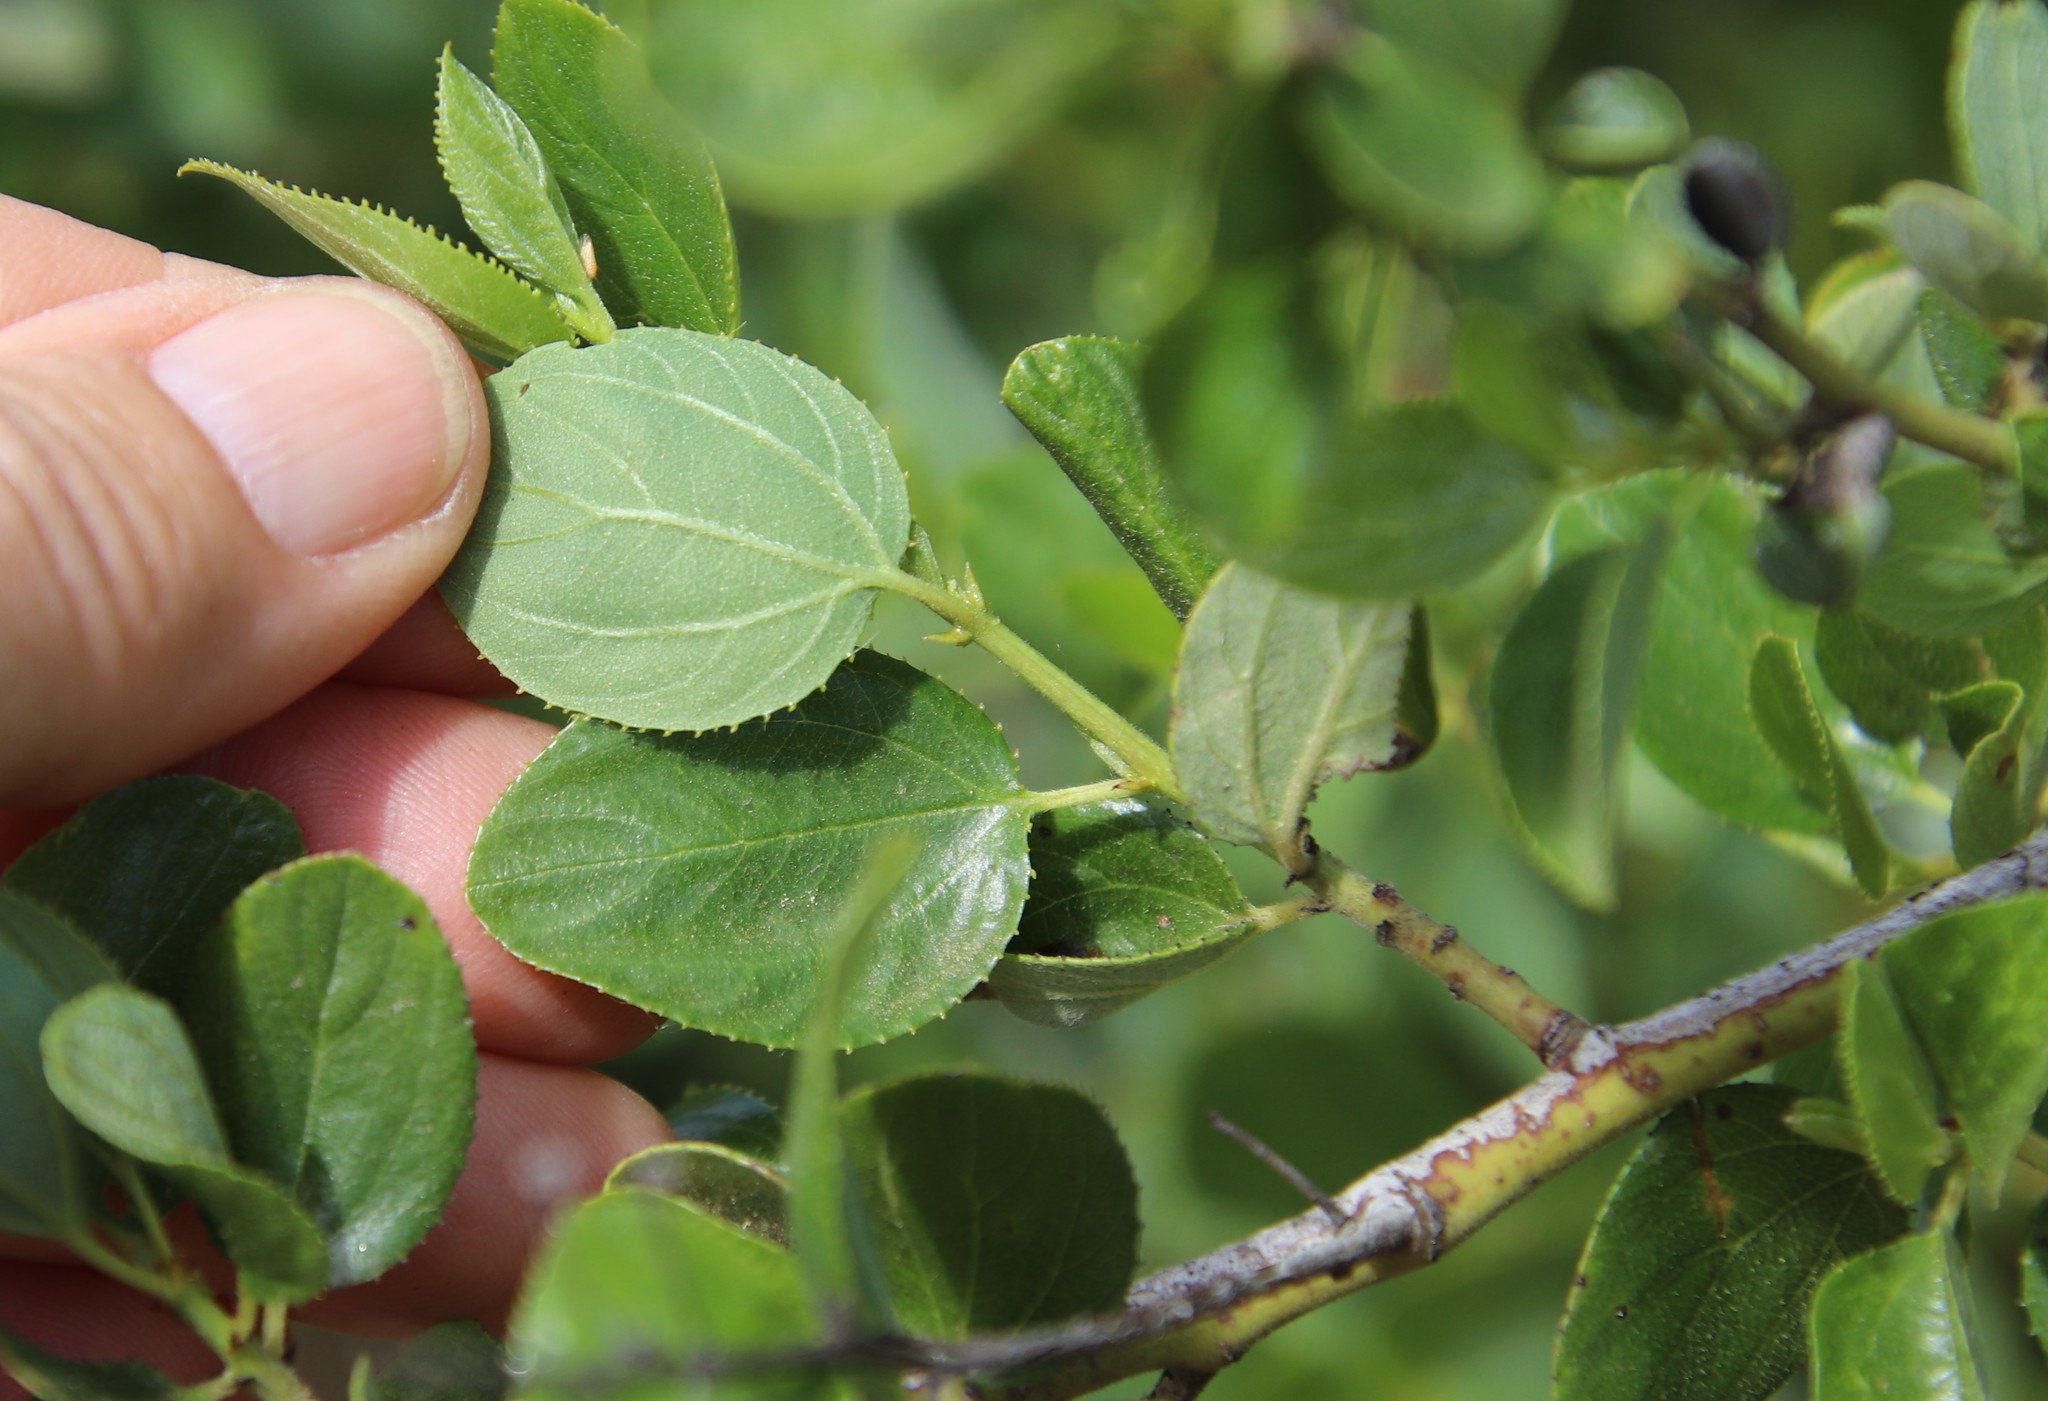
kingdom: Plantae
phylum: Tracheophyta
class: Magnoliopsida
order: Rosales
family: Rhamnaceae
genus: Ceanothus
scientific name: Ceanothus oliganthus
